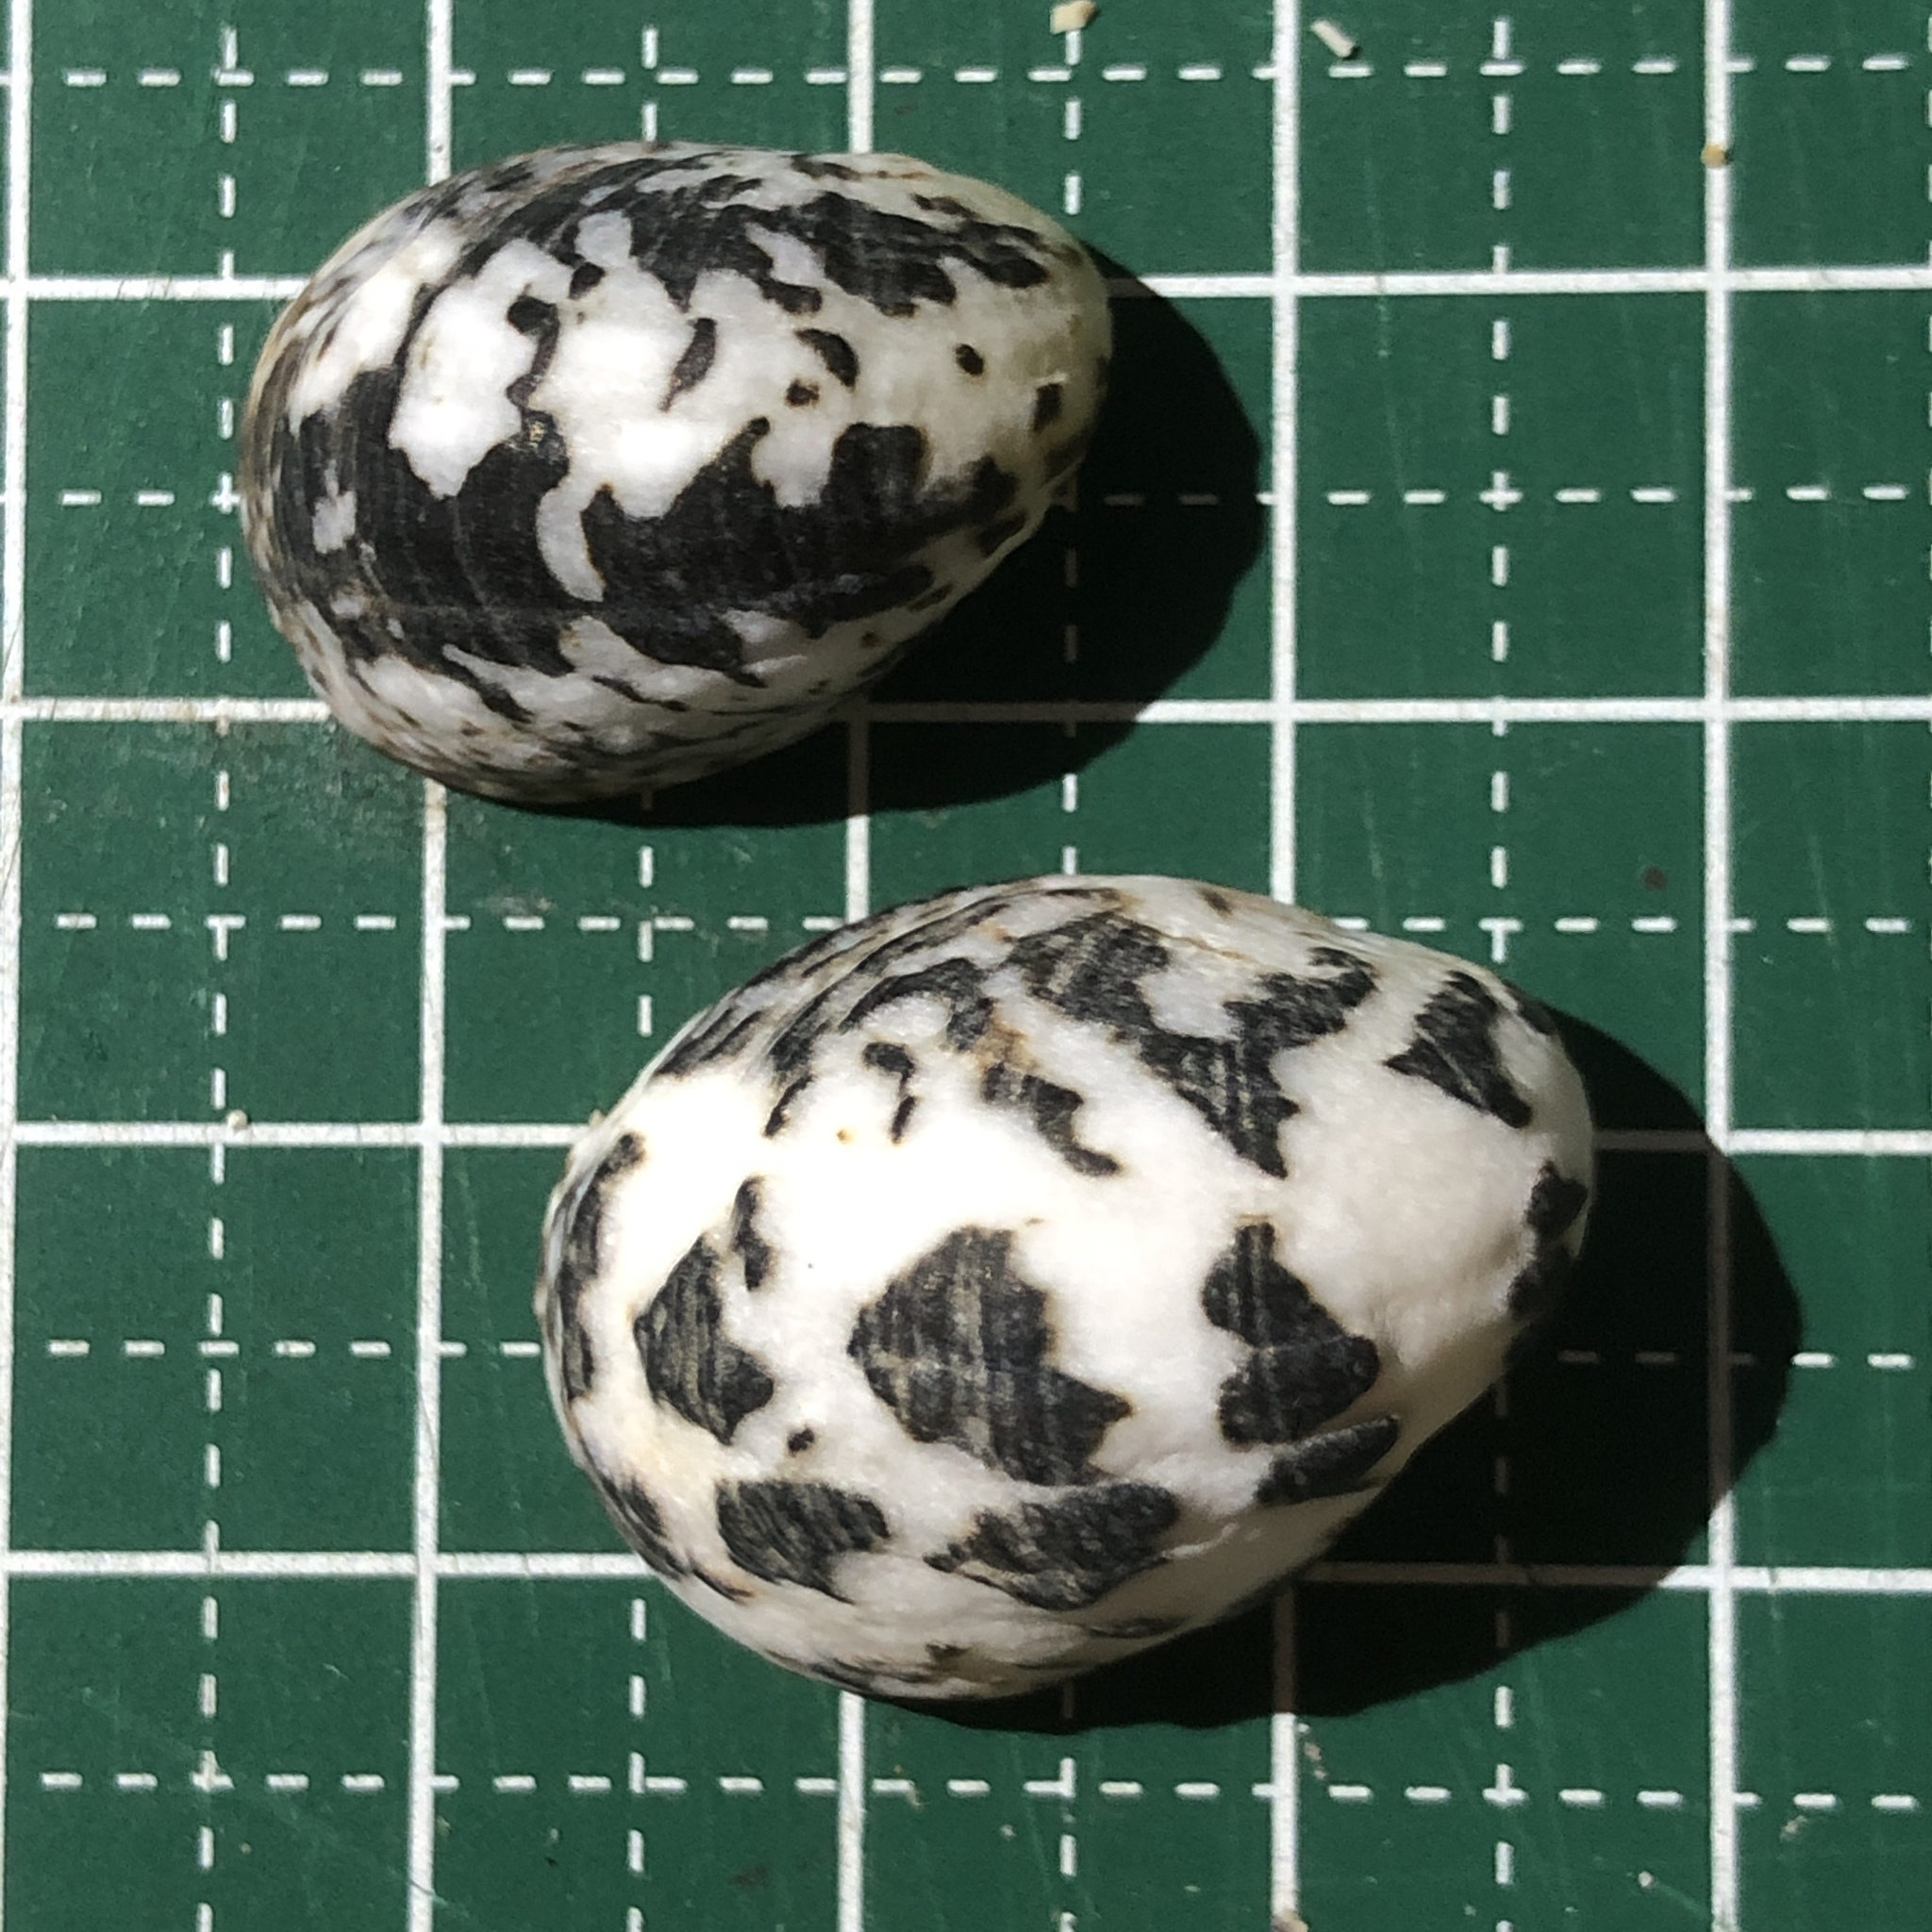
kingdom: Animalia
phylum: Mollusca
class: Gastropoda
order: Cycloneritida
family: Neritidae
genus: Nerita
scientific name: Nerita albicilla
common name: Blotched nerite
